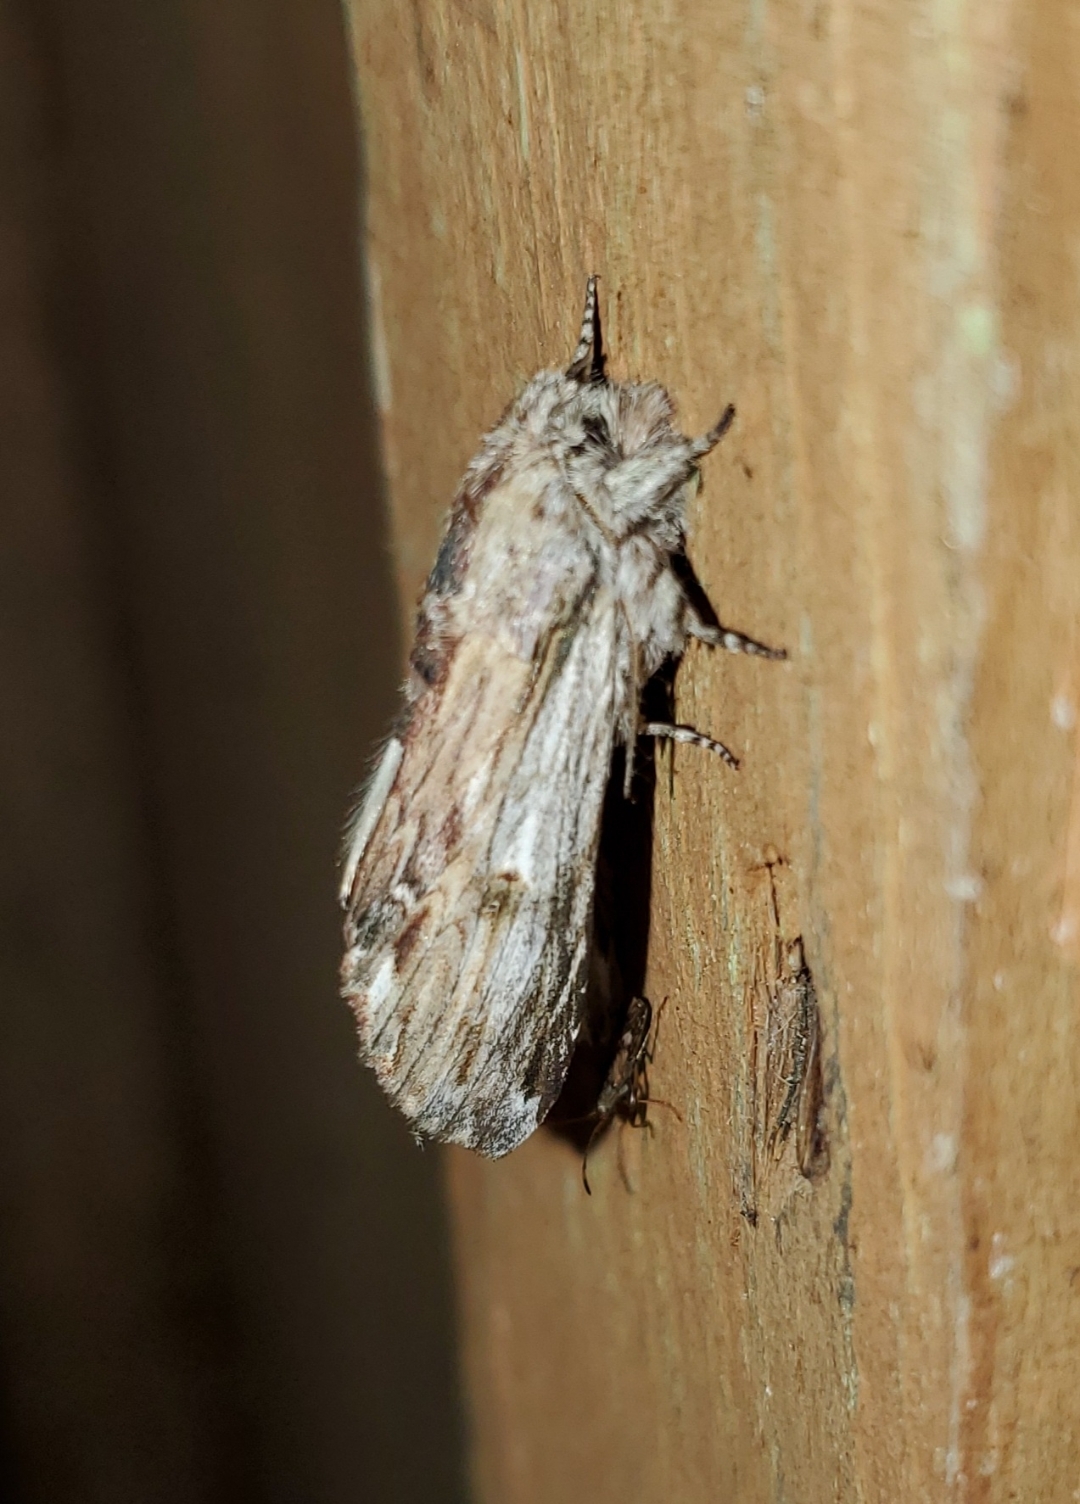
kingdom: Animalia
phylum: Arthropoda
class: Insecta
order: Lepidoptera
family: Notodontidae
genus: Oligocentria
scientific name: Oligocentria Ianassa lignicolor
